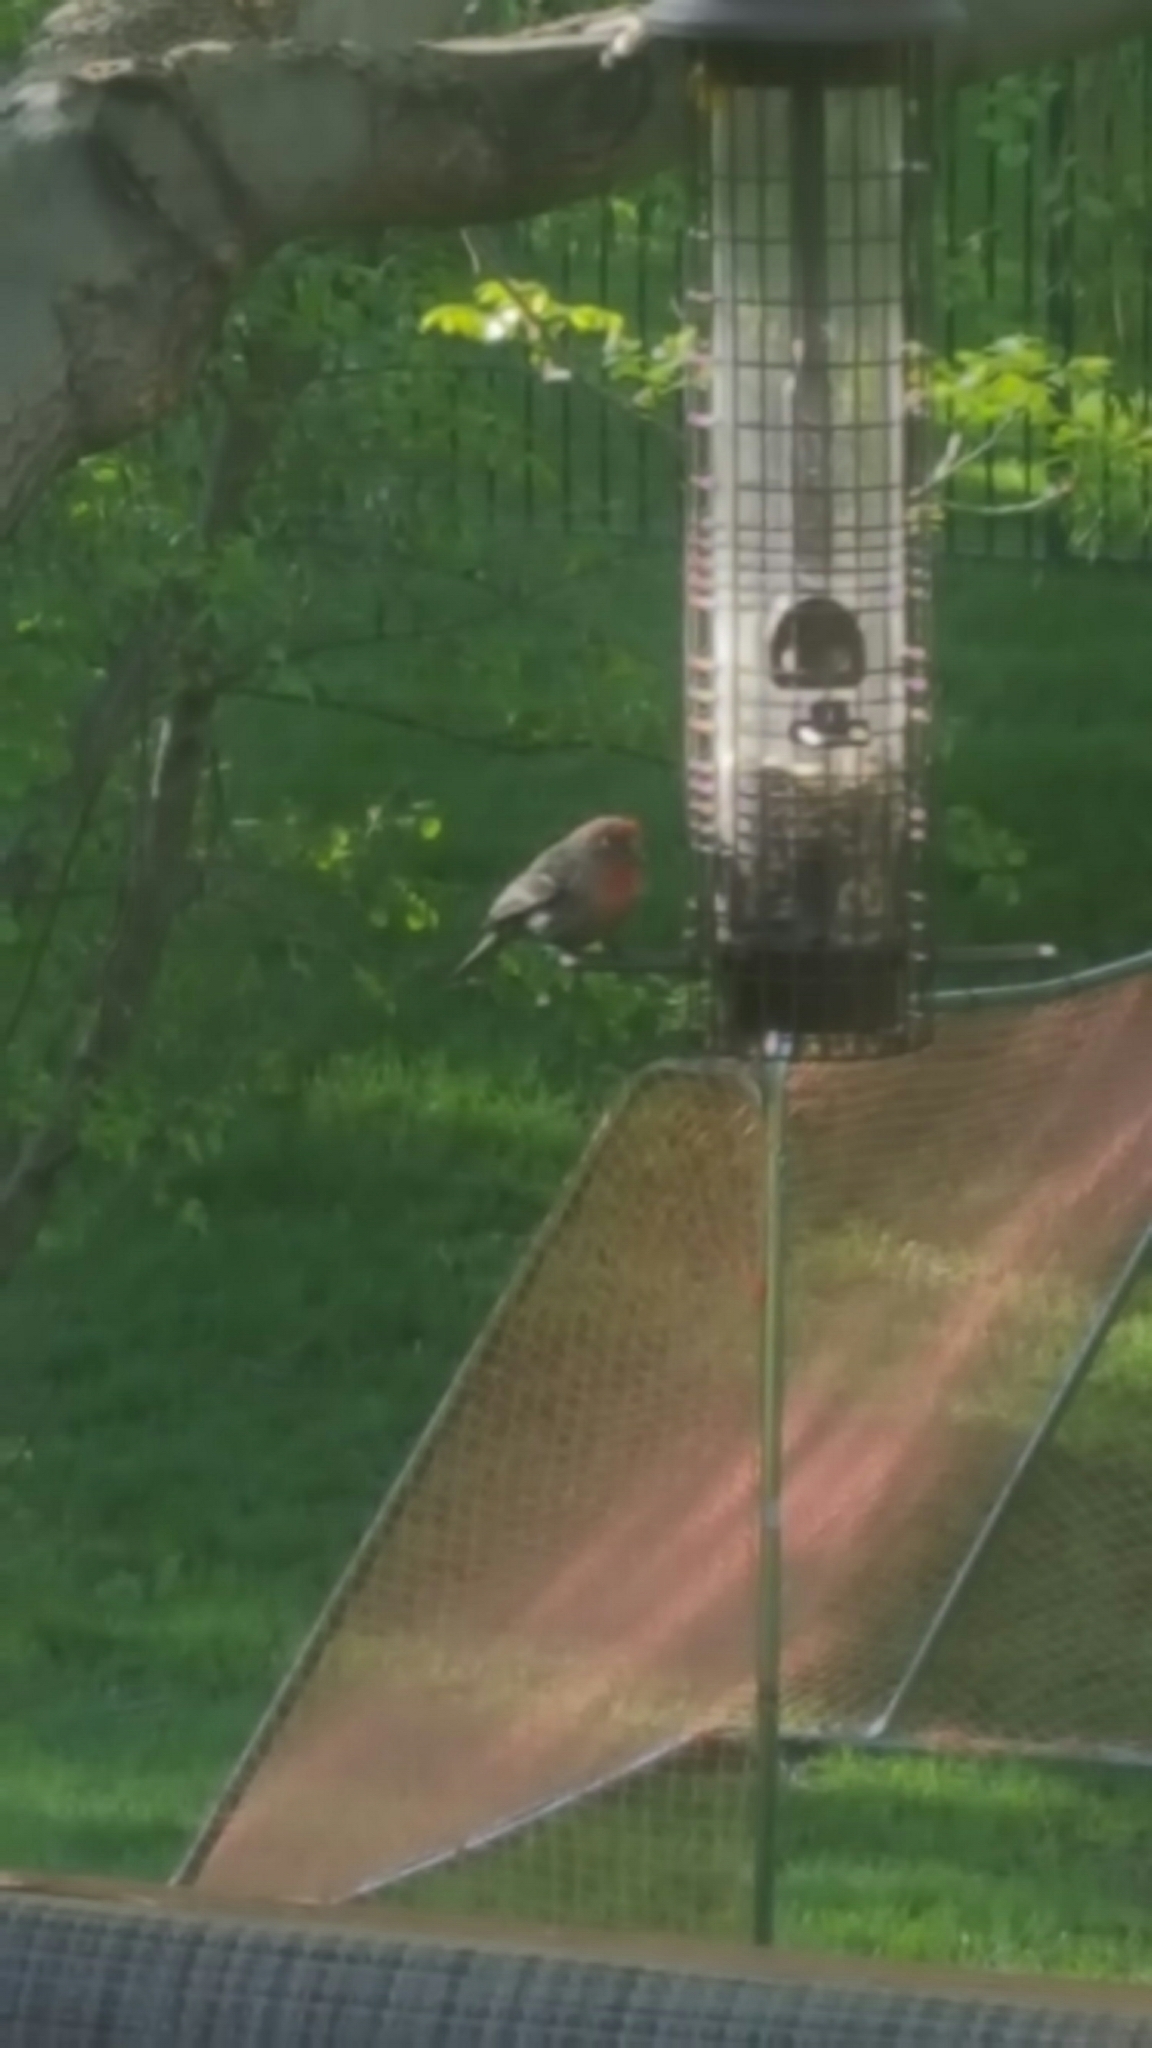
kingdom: Animalia
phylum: Chordata
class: Aves
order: Passeriformes
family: Fringillidae
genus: Haemorhous
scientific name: Haemorhous mexicanus
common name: House finch
